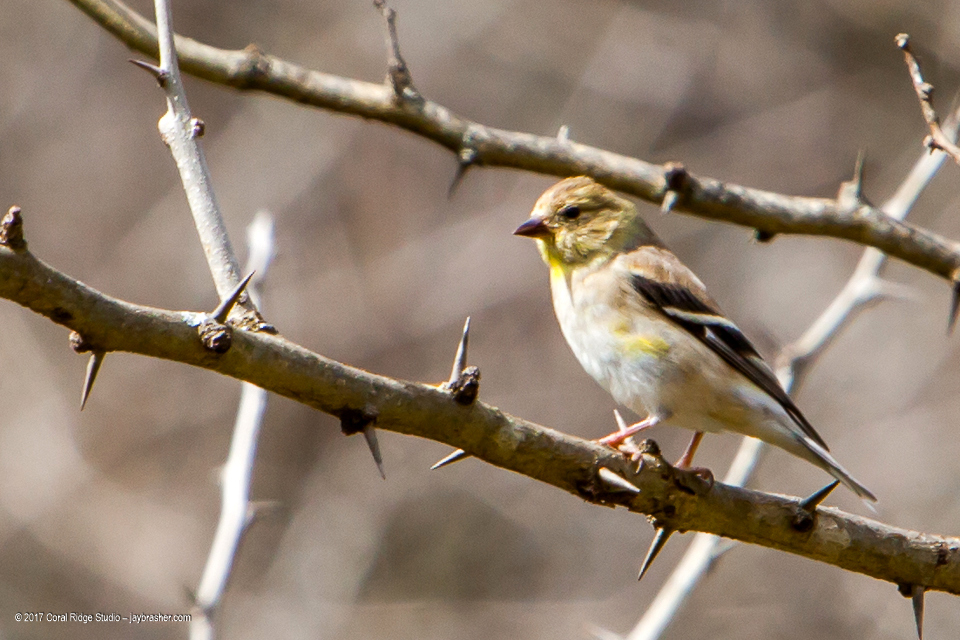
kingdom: Animalia
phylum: Chordata
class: Aves
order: Passeriformes
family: Fringillidae
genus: Spinus
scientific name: Spinus tristis
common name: American goldfinch
